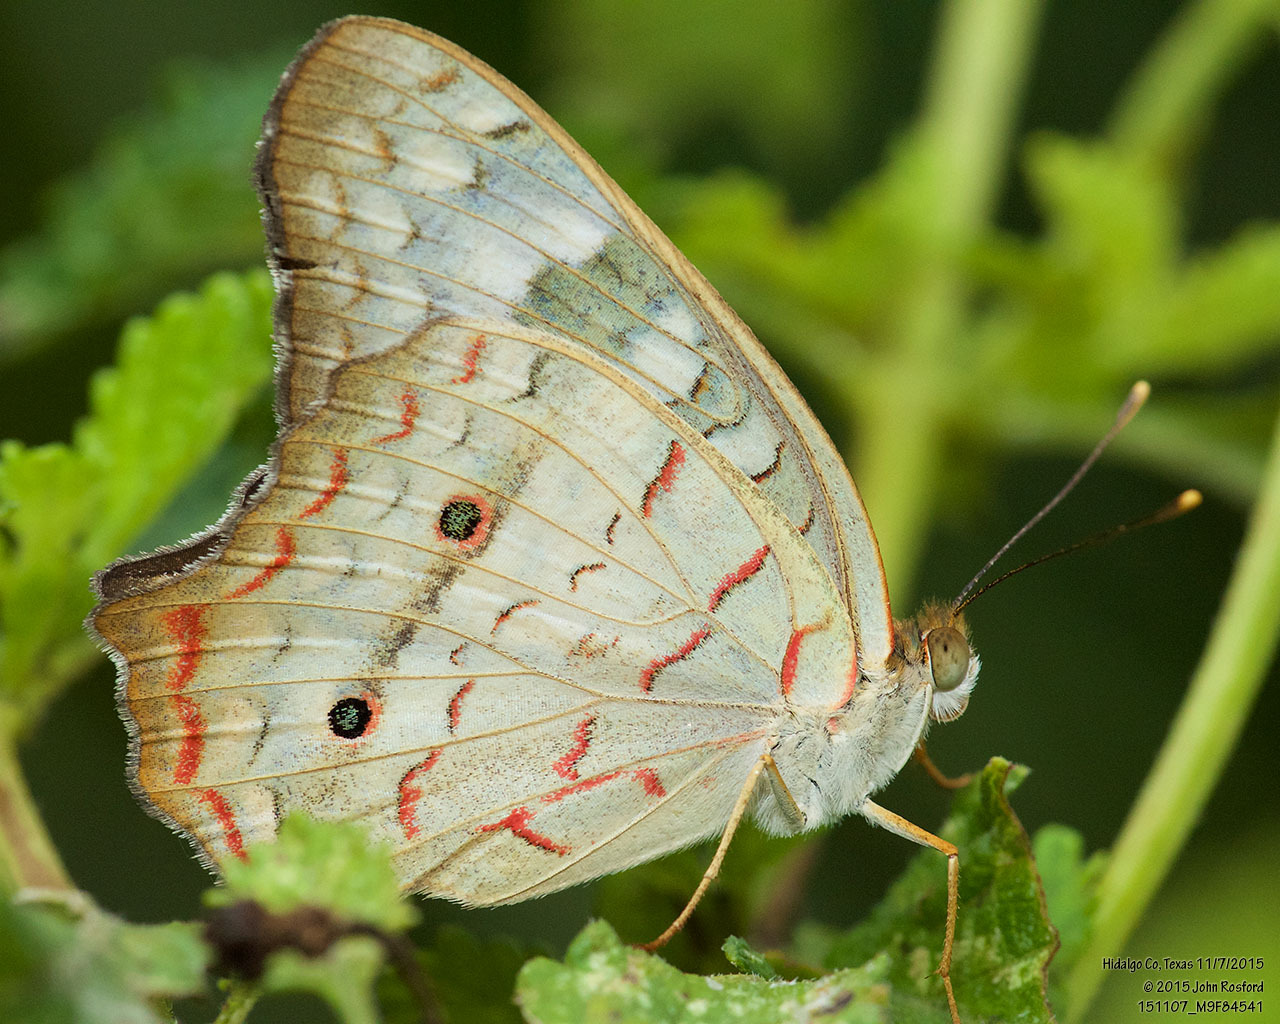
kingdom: Animalia
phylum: Arthropoda
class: Insecta
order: Lepidoptera
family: Nymphalidae
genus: Anartia
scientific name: Anartia jatrophae
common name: White peacock
